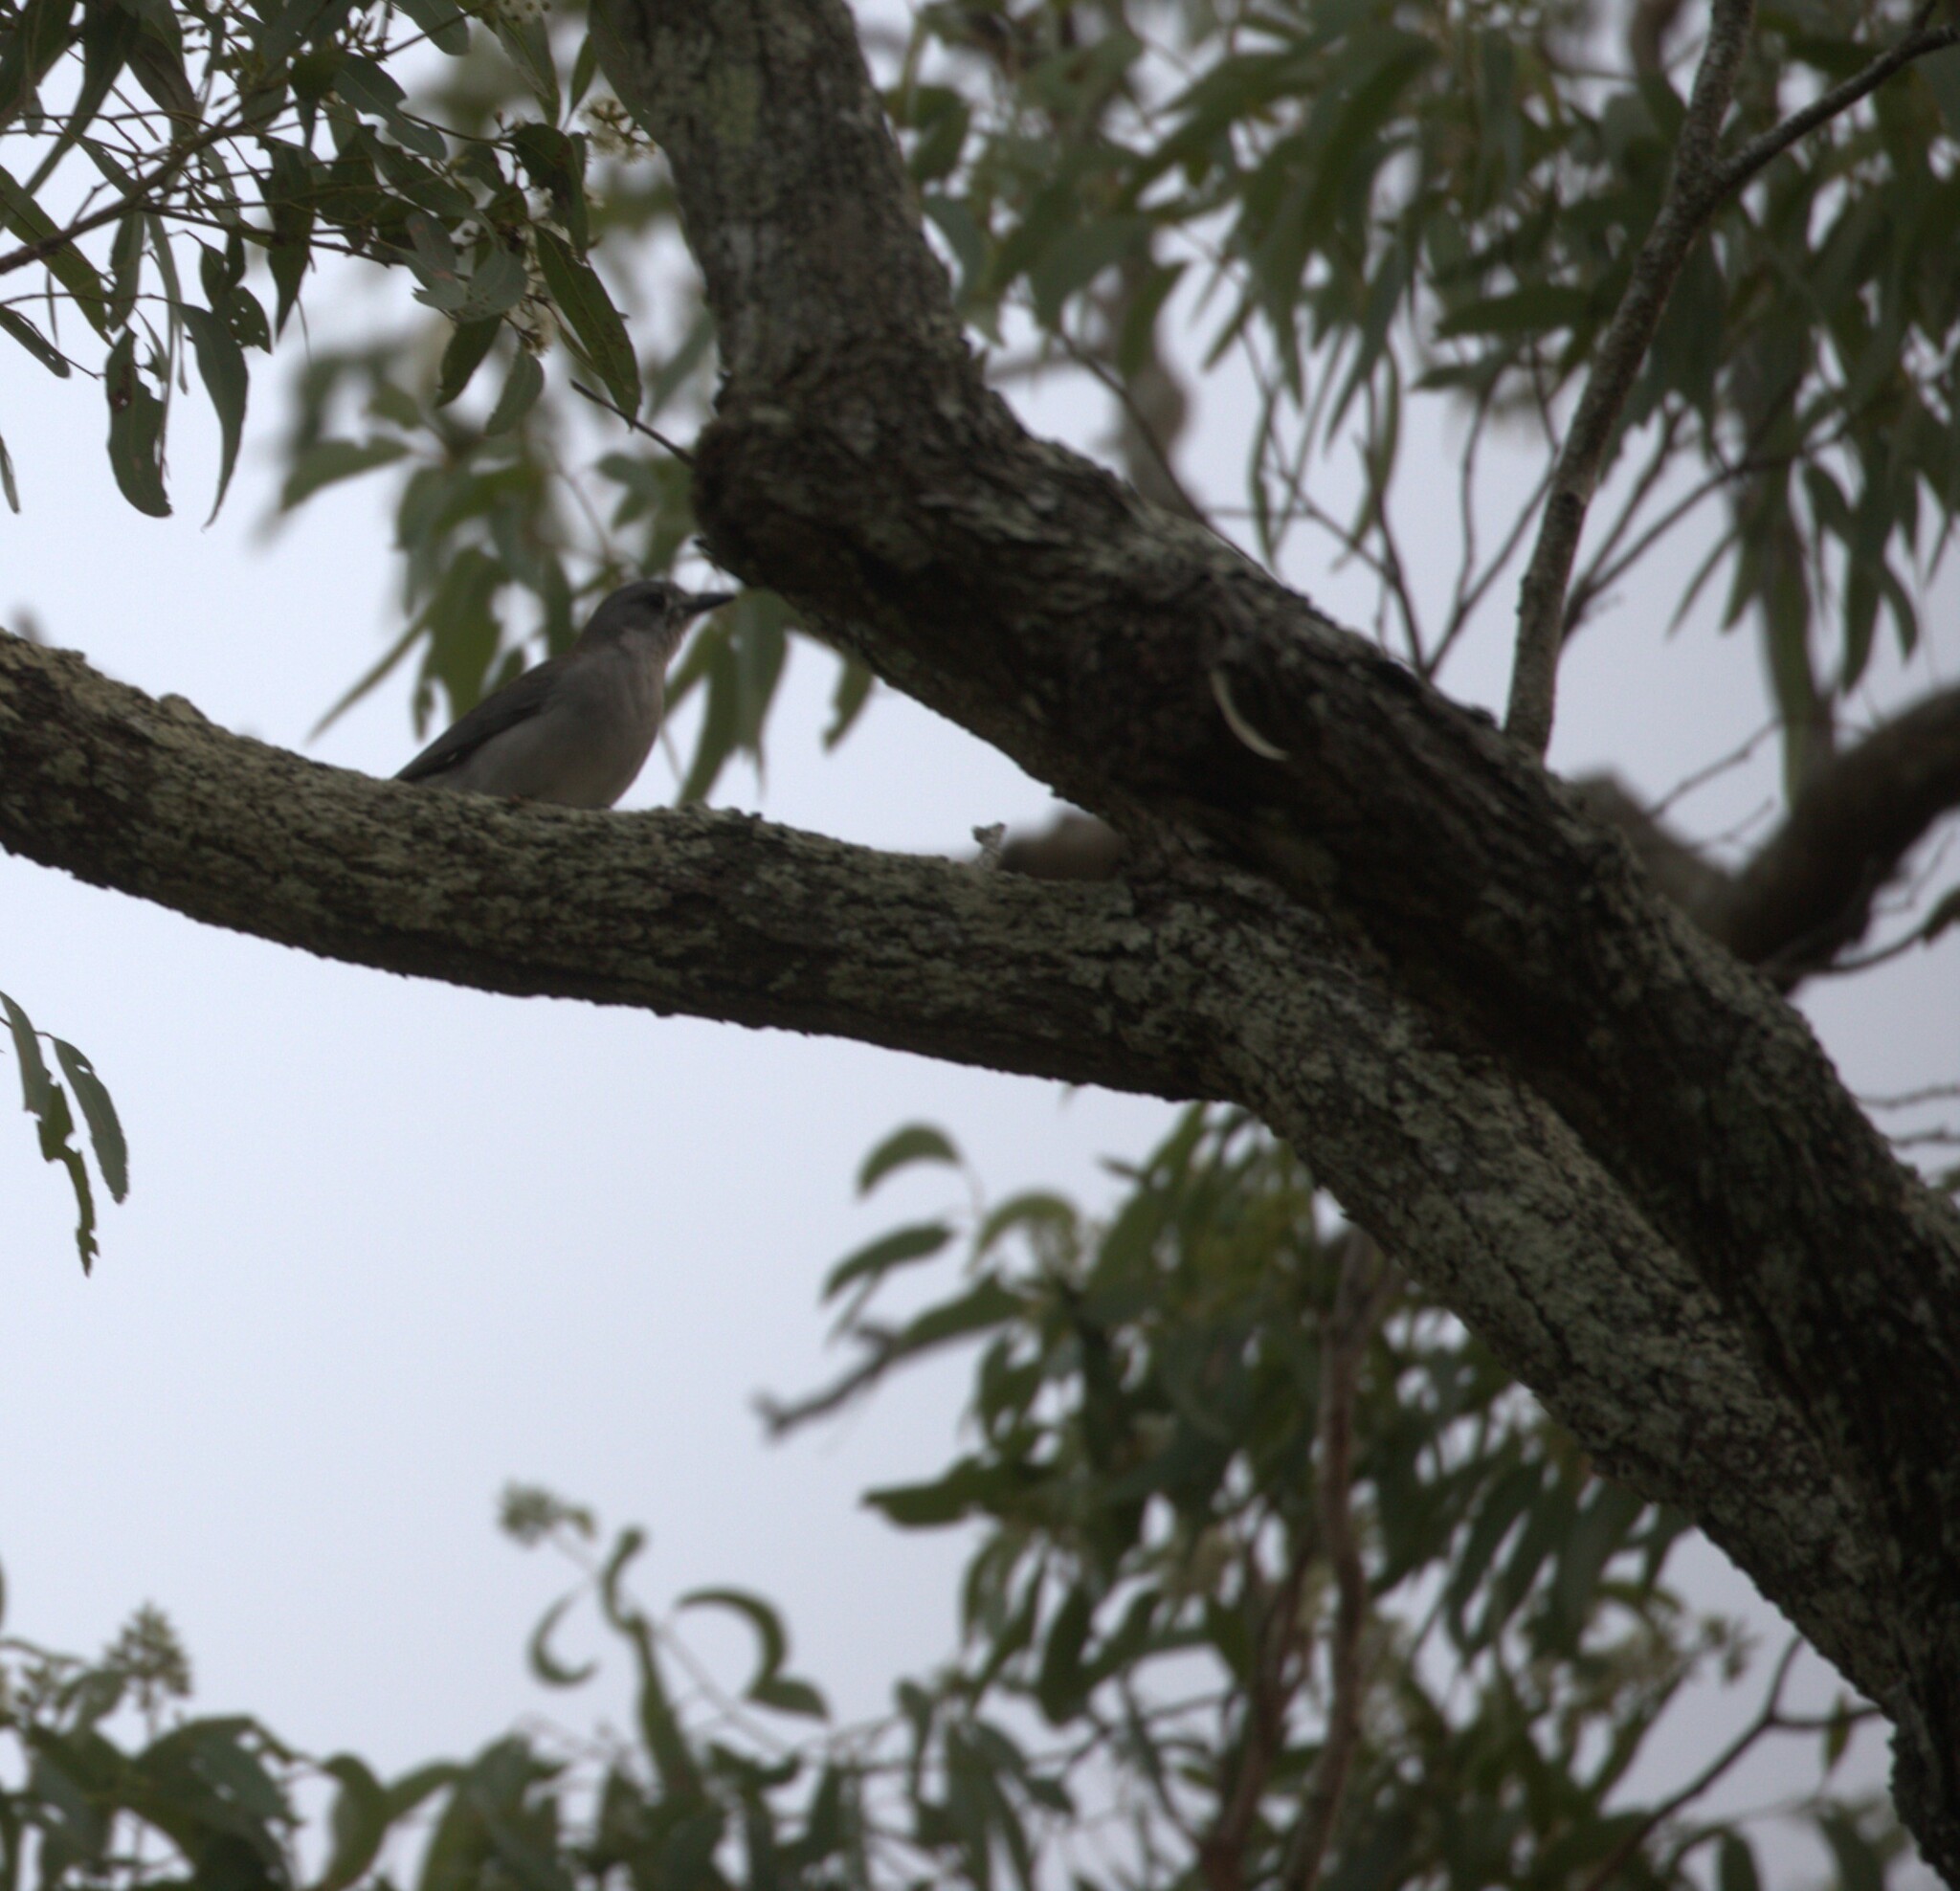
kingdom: Animalia
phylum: Chordata
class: Aves
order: Passeriformes
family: Pachycephalidae
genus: Colluricincla
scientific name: Colluricincla harmonica
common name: Grey shrikethrush
